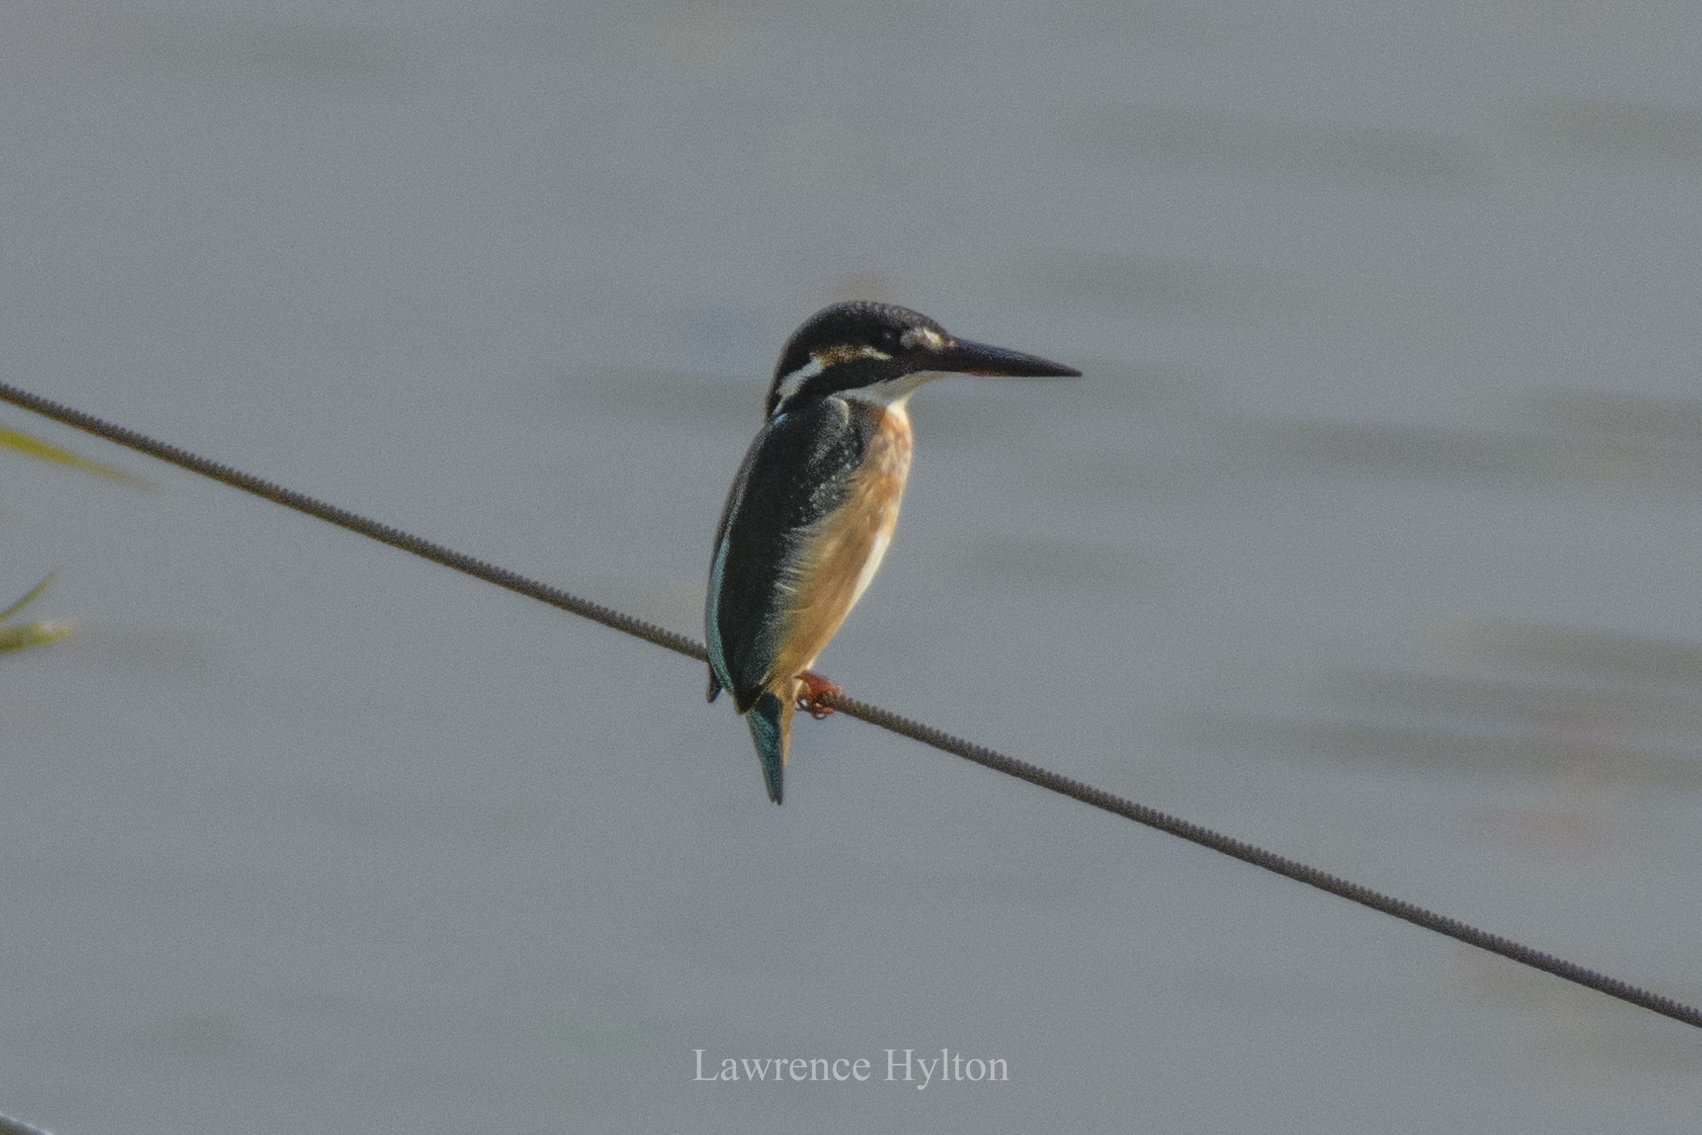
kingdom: Animalia
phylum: Chordata
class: Aves
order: Coraciiformes
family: Alcedinidae
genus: Alcedo
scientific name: Alcedo atthis
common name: Common kingfisher
